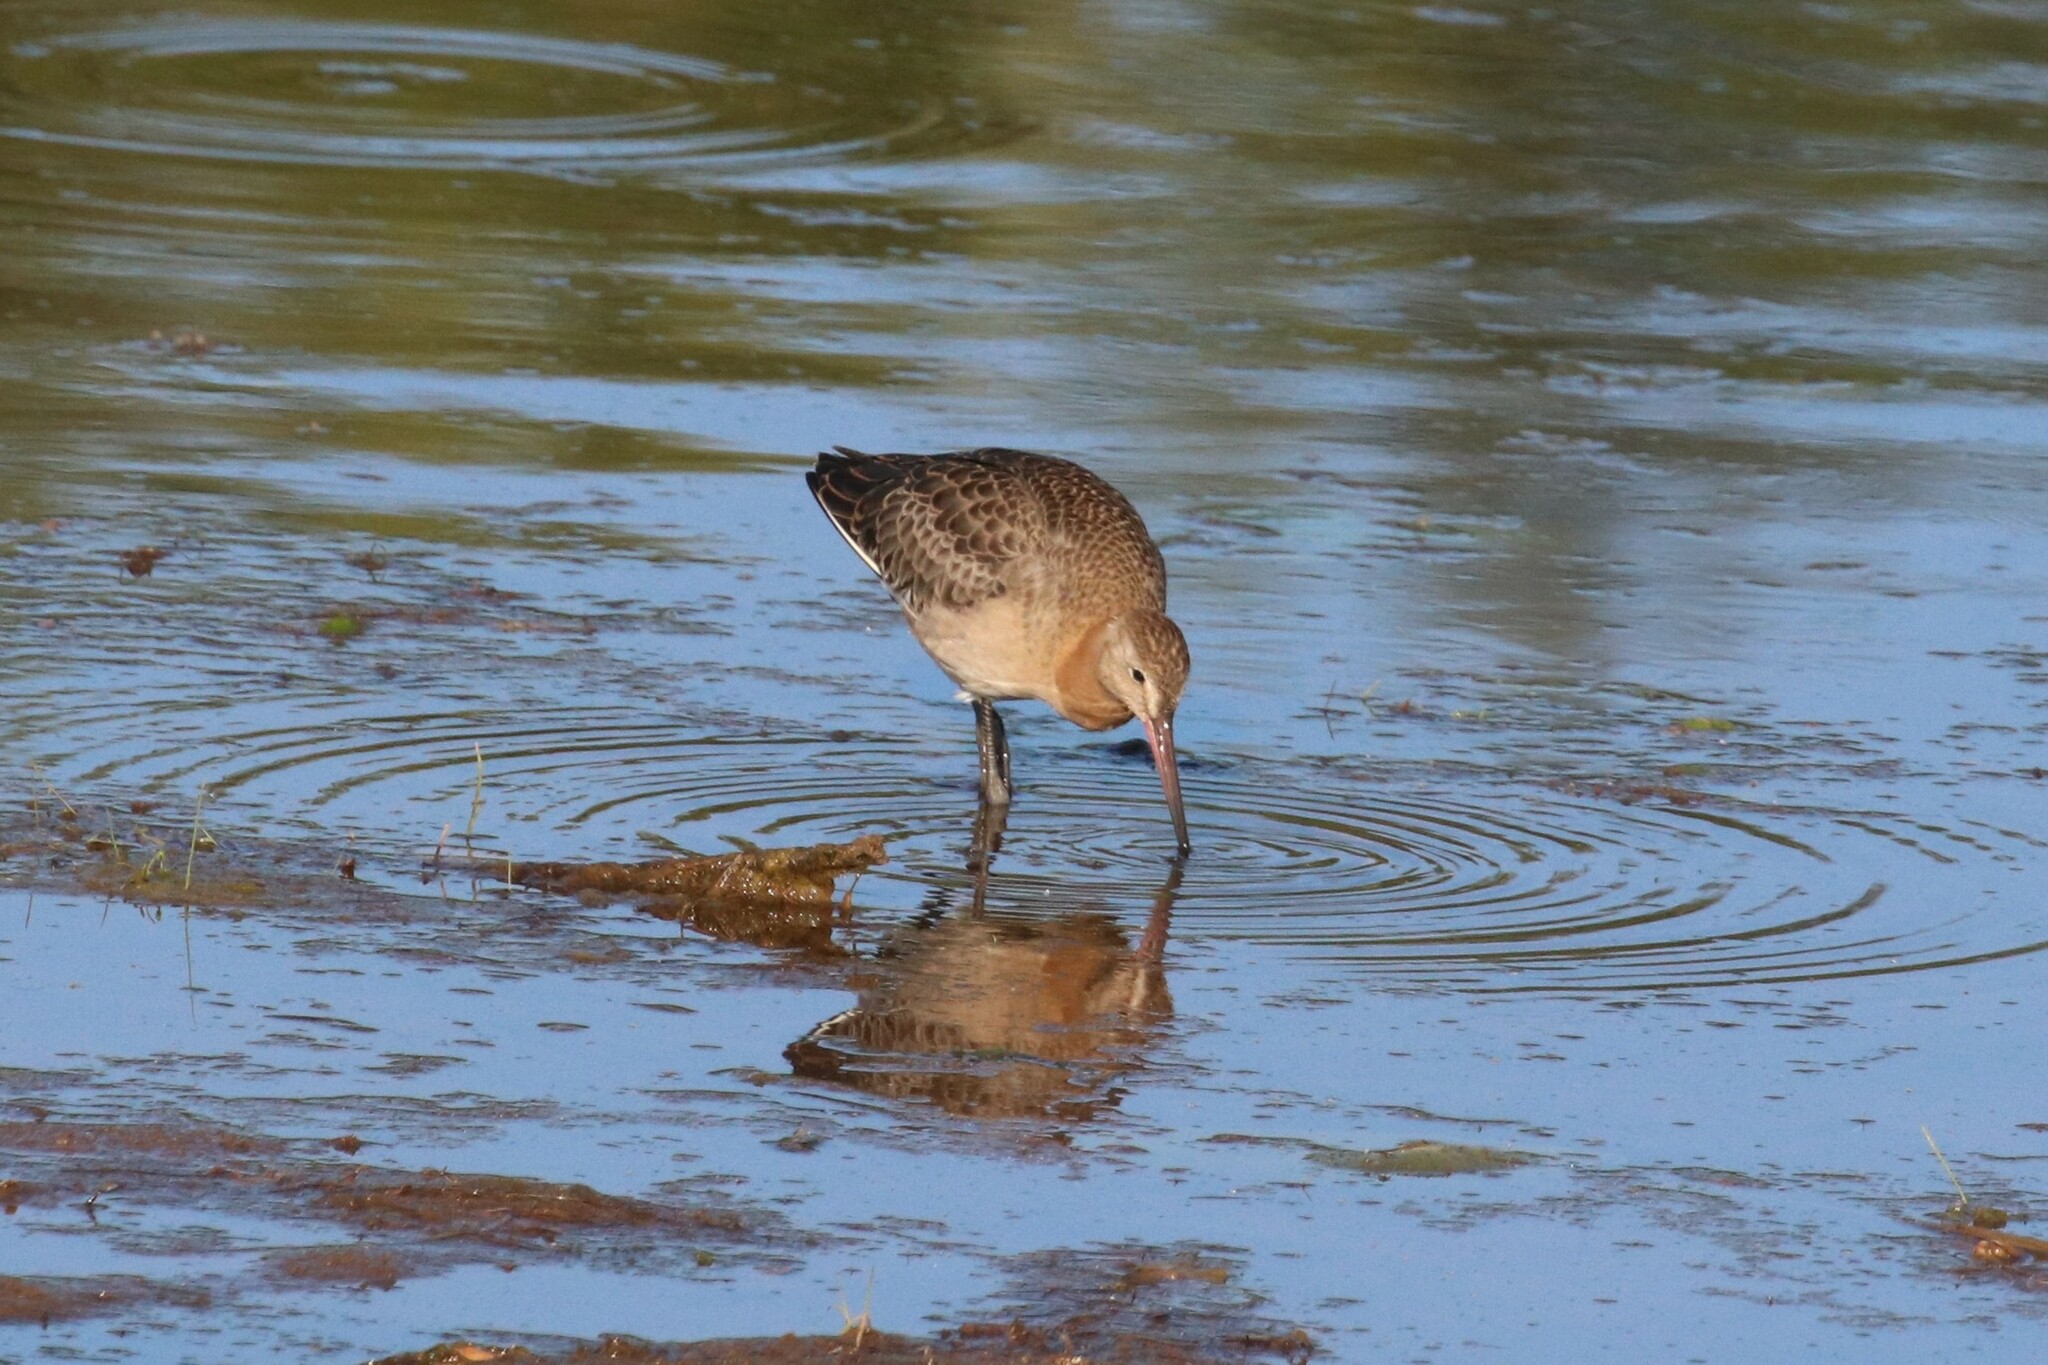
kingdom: Animalia
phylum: Chordata
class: Aves
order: Charadriiformes
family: Scolopacidae
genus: Limosa
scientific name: Limosa limosa
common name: Black-tailed godwit
